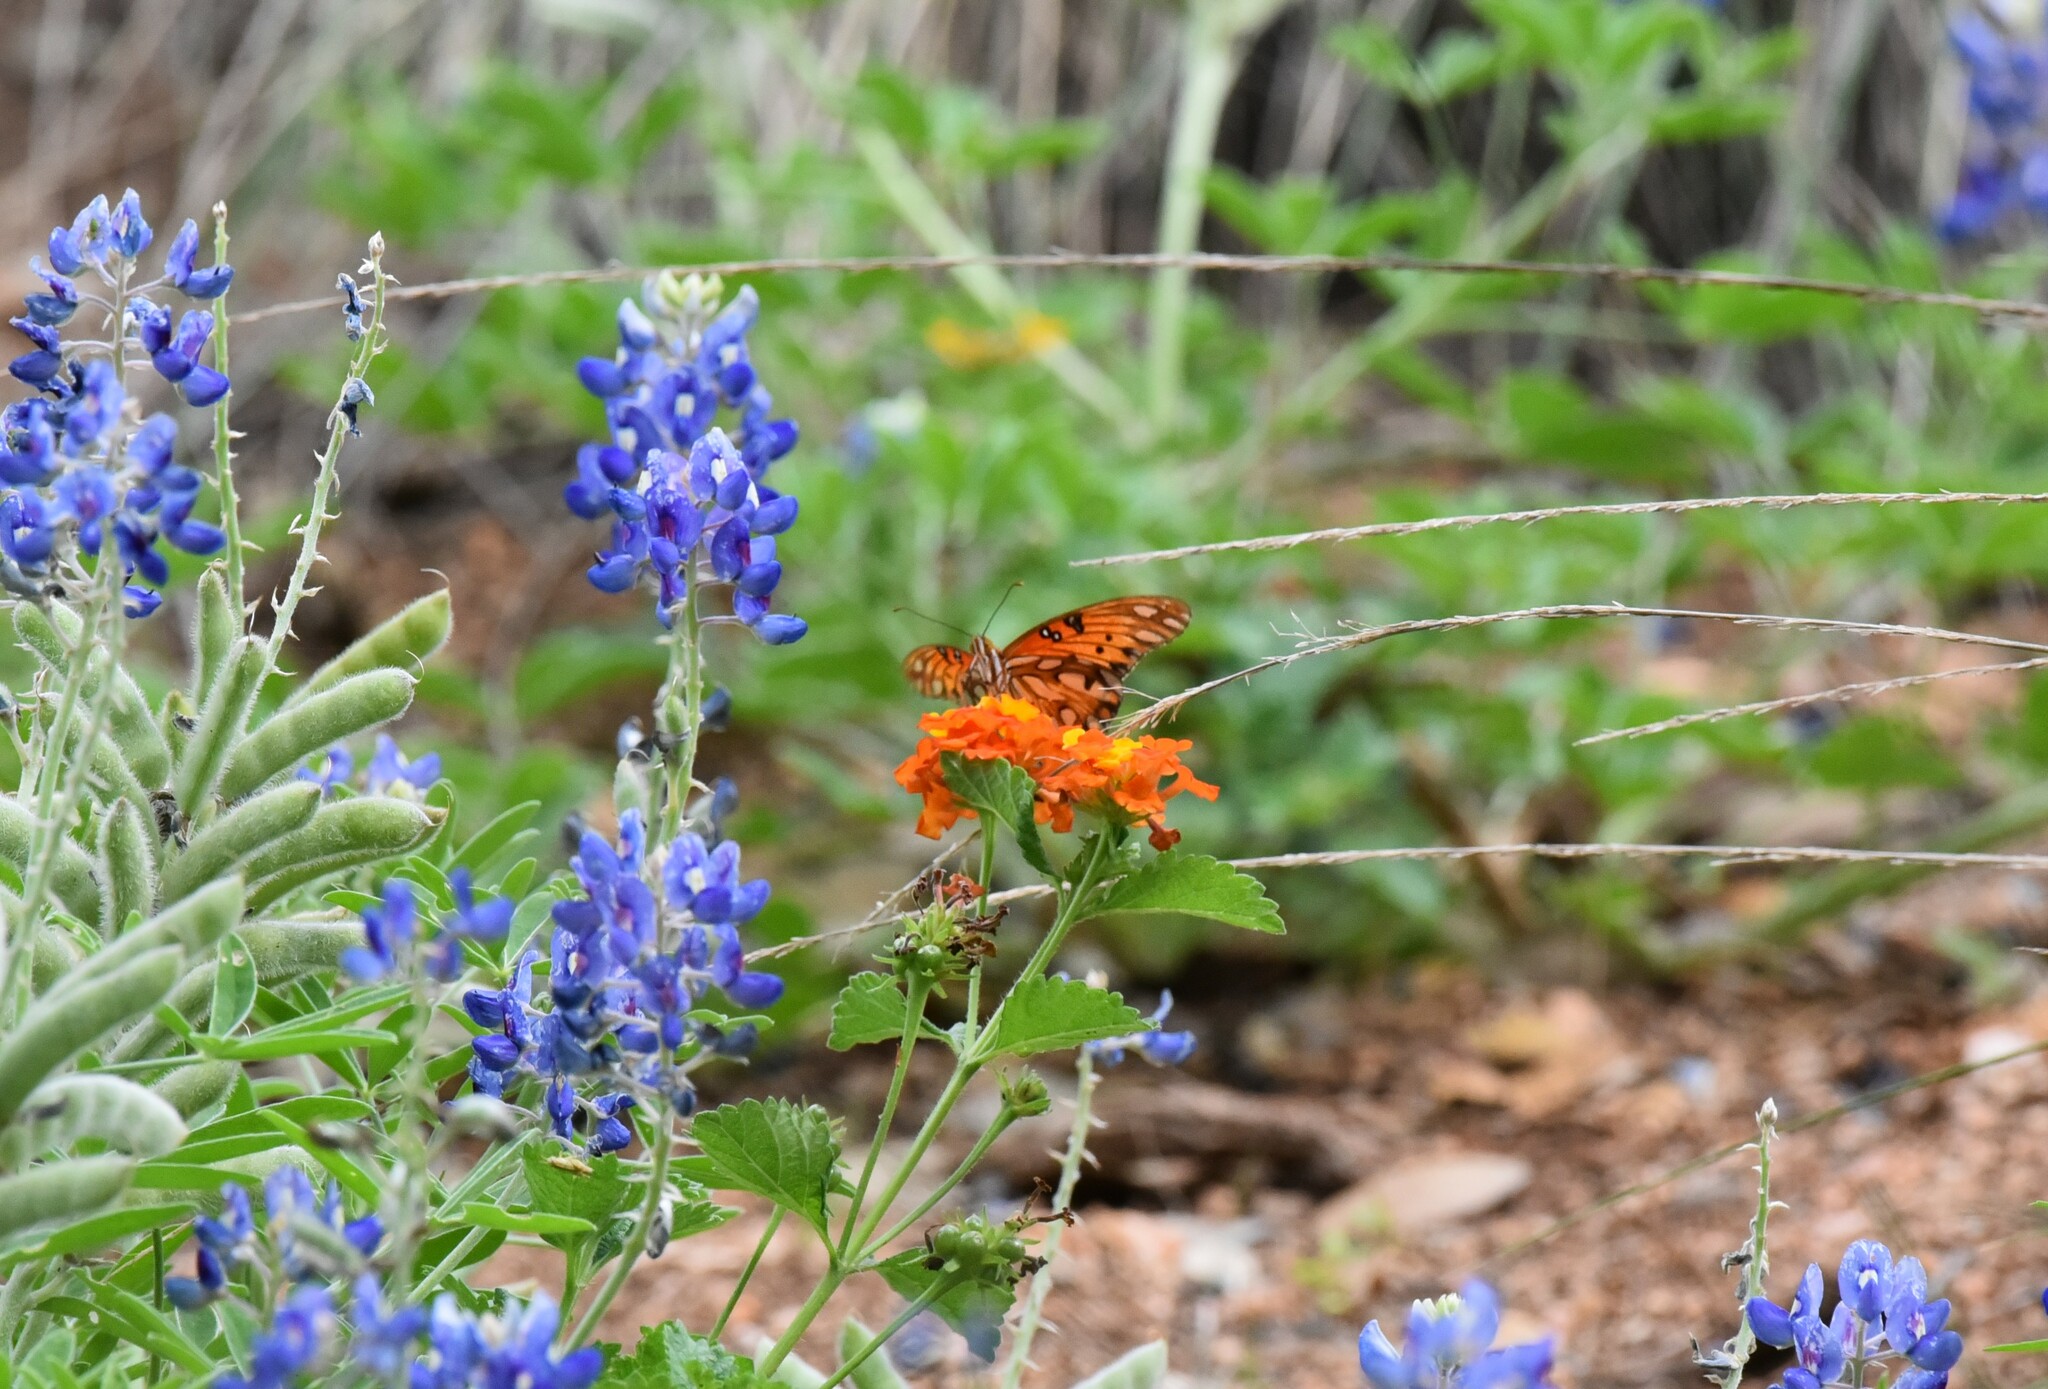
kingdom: Animalia
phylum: Arthropoda
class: Insecta
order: Lepidoptera
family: Nymphalidae
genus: Dione
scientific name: Dione vanillae
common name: Gulf fritillary
